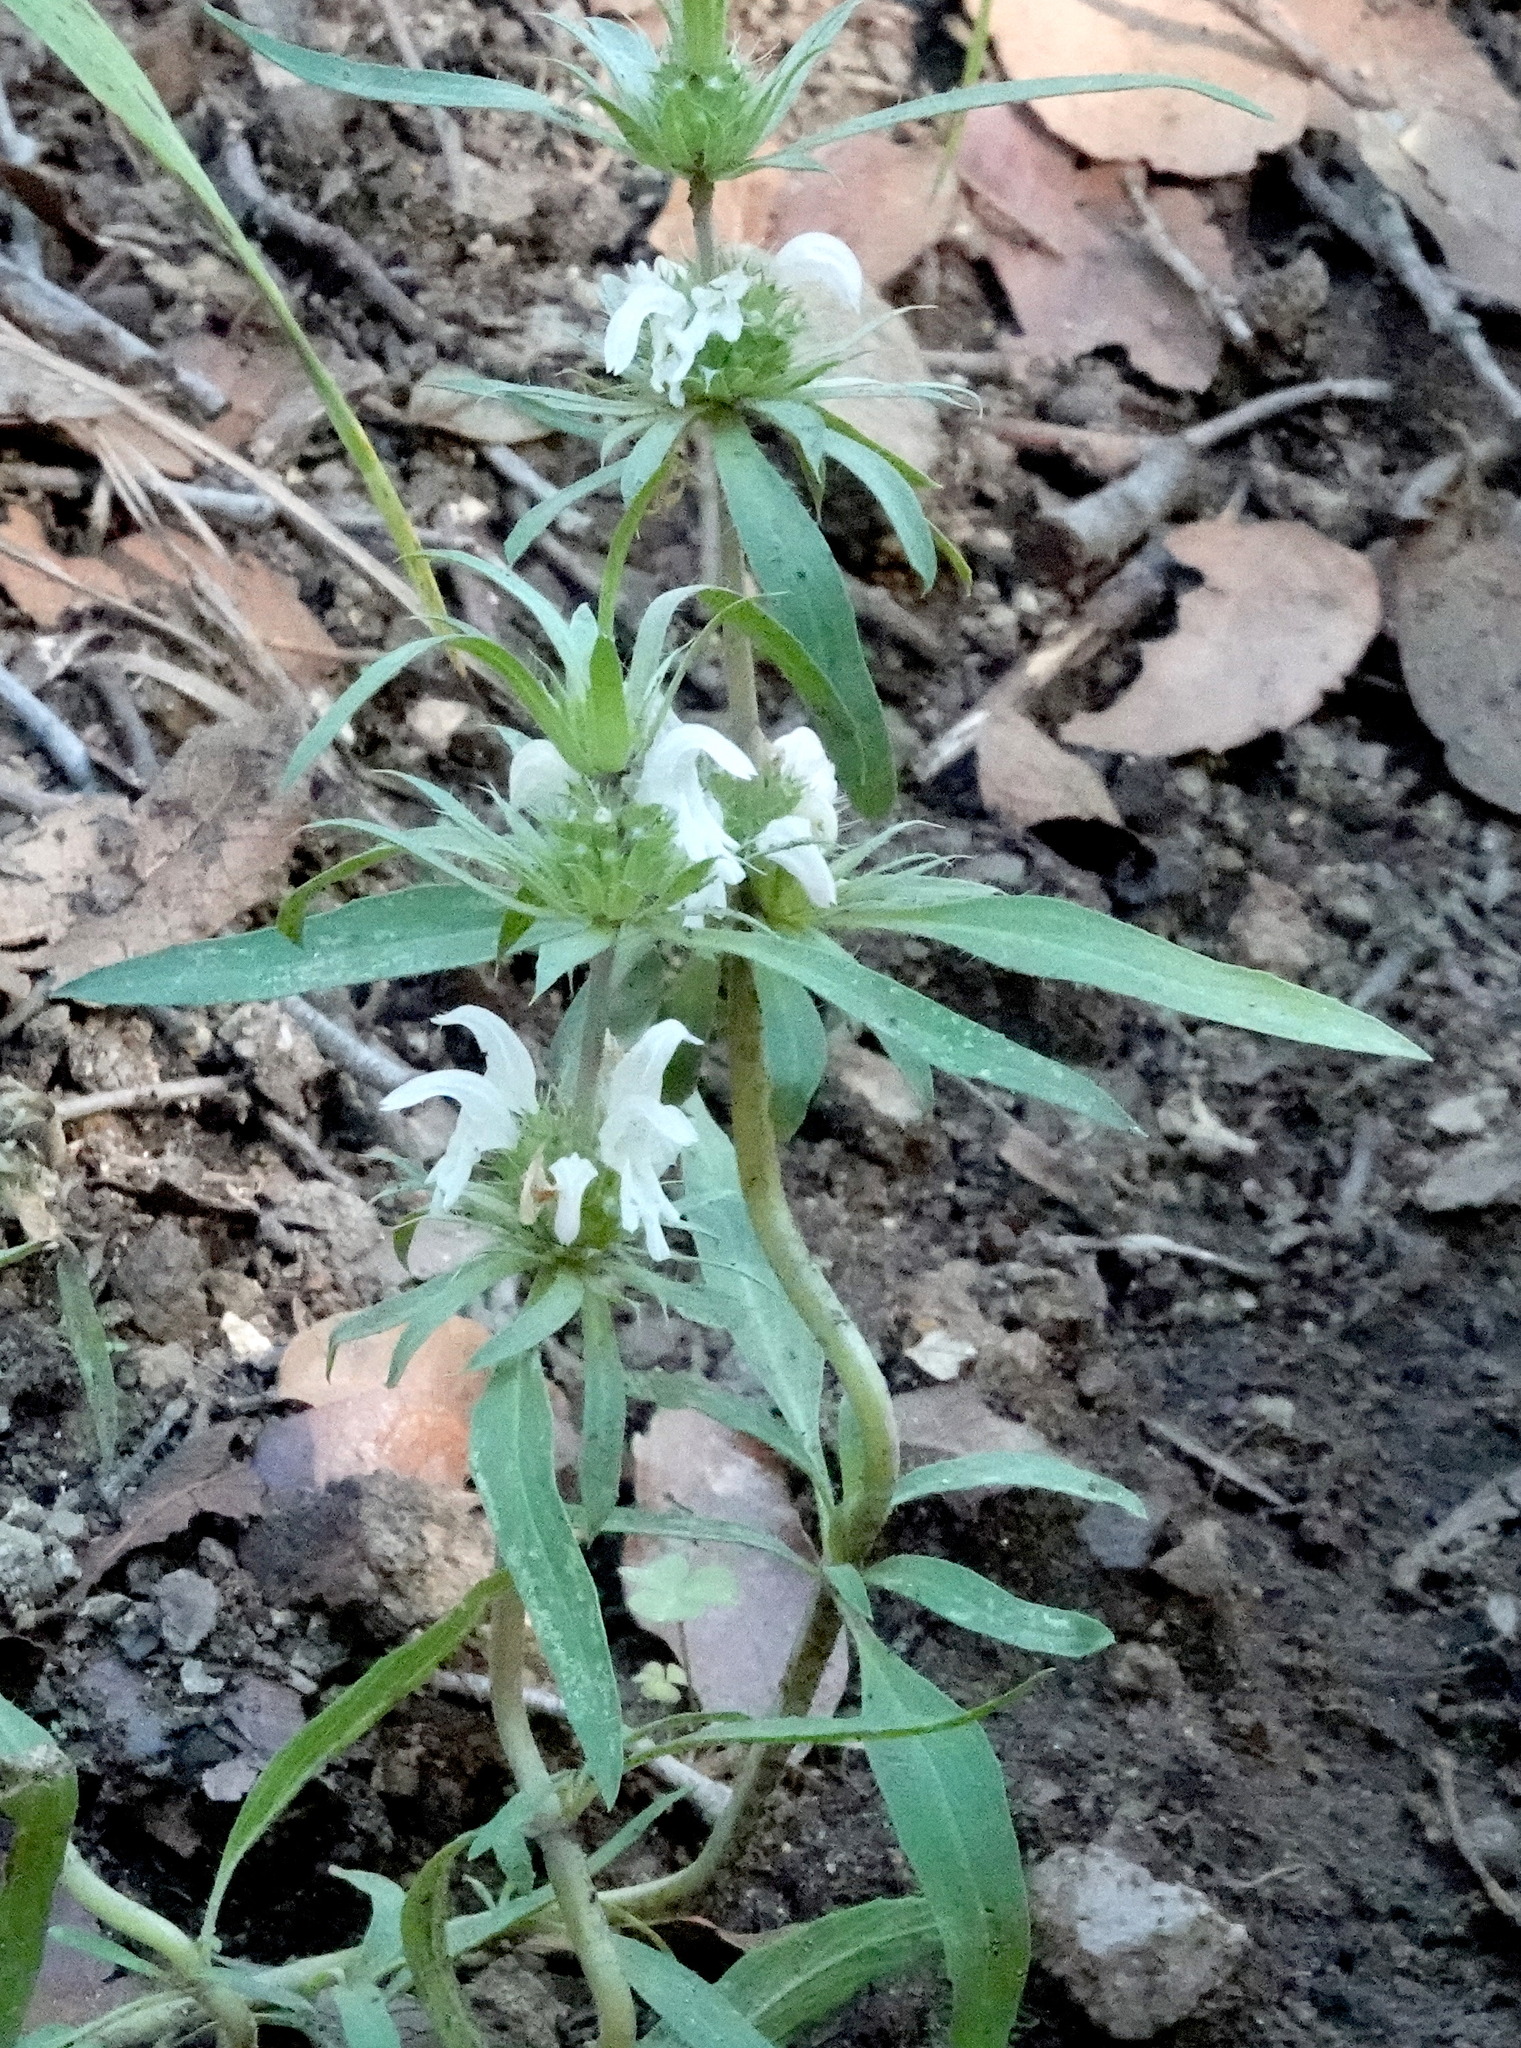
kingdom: Plantae
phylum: Tracheophyta
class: Magnoliopsida
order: Lamiales
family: Lamiaceae
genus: Monarda
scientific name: Monarda citriodora
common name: Lemon beebalm
